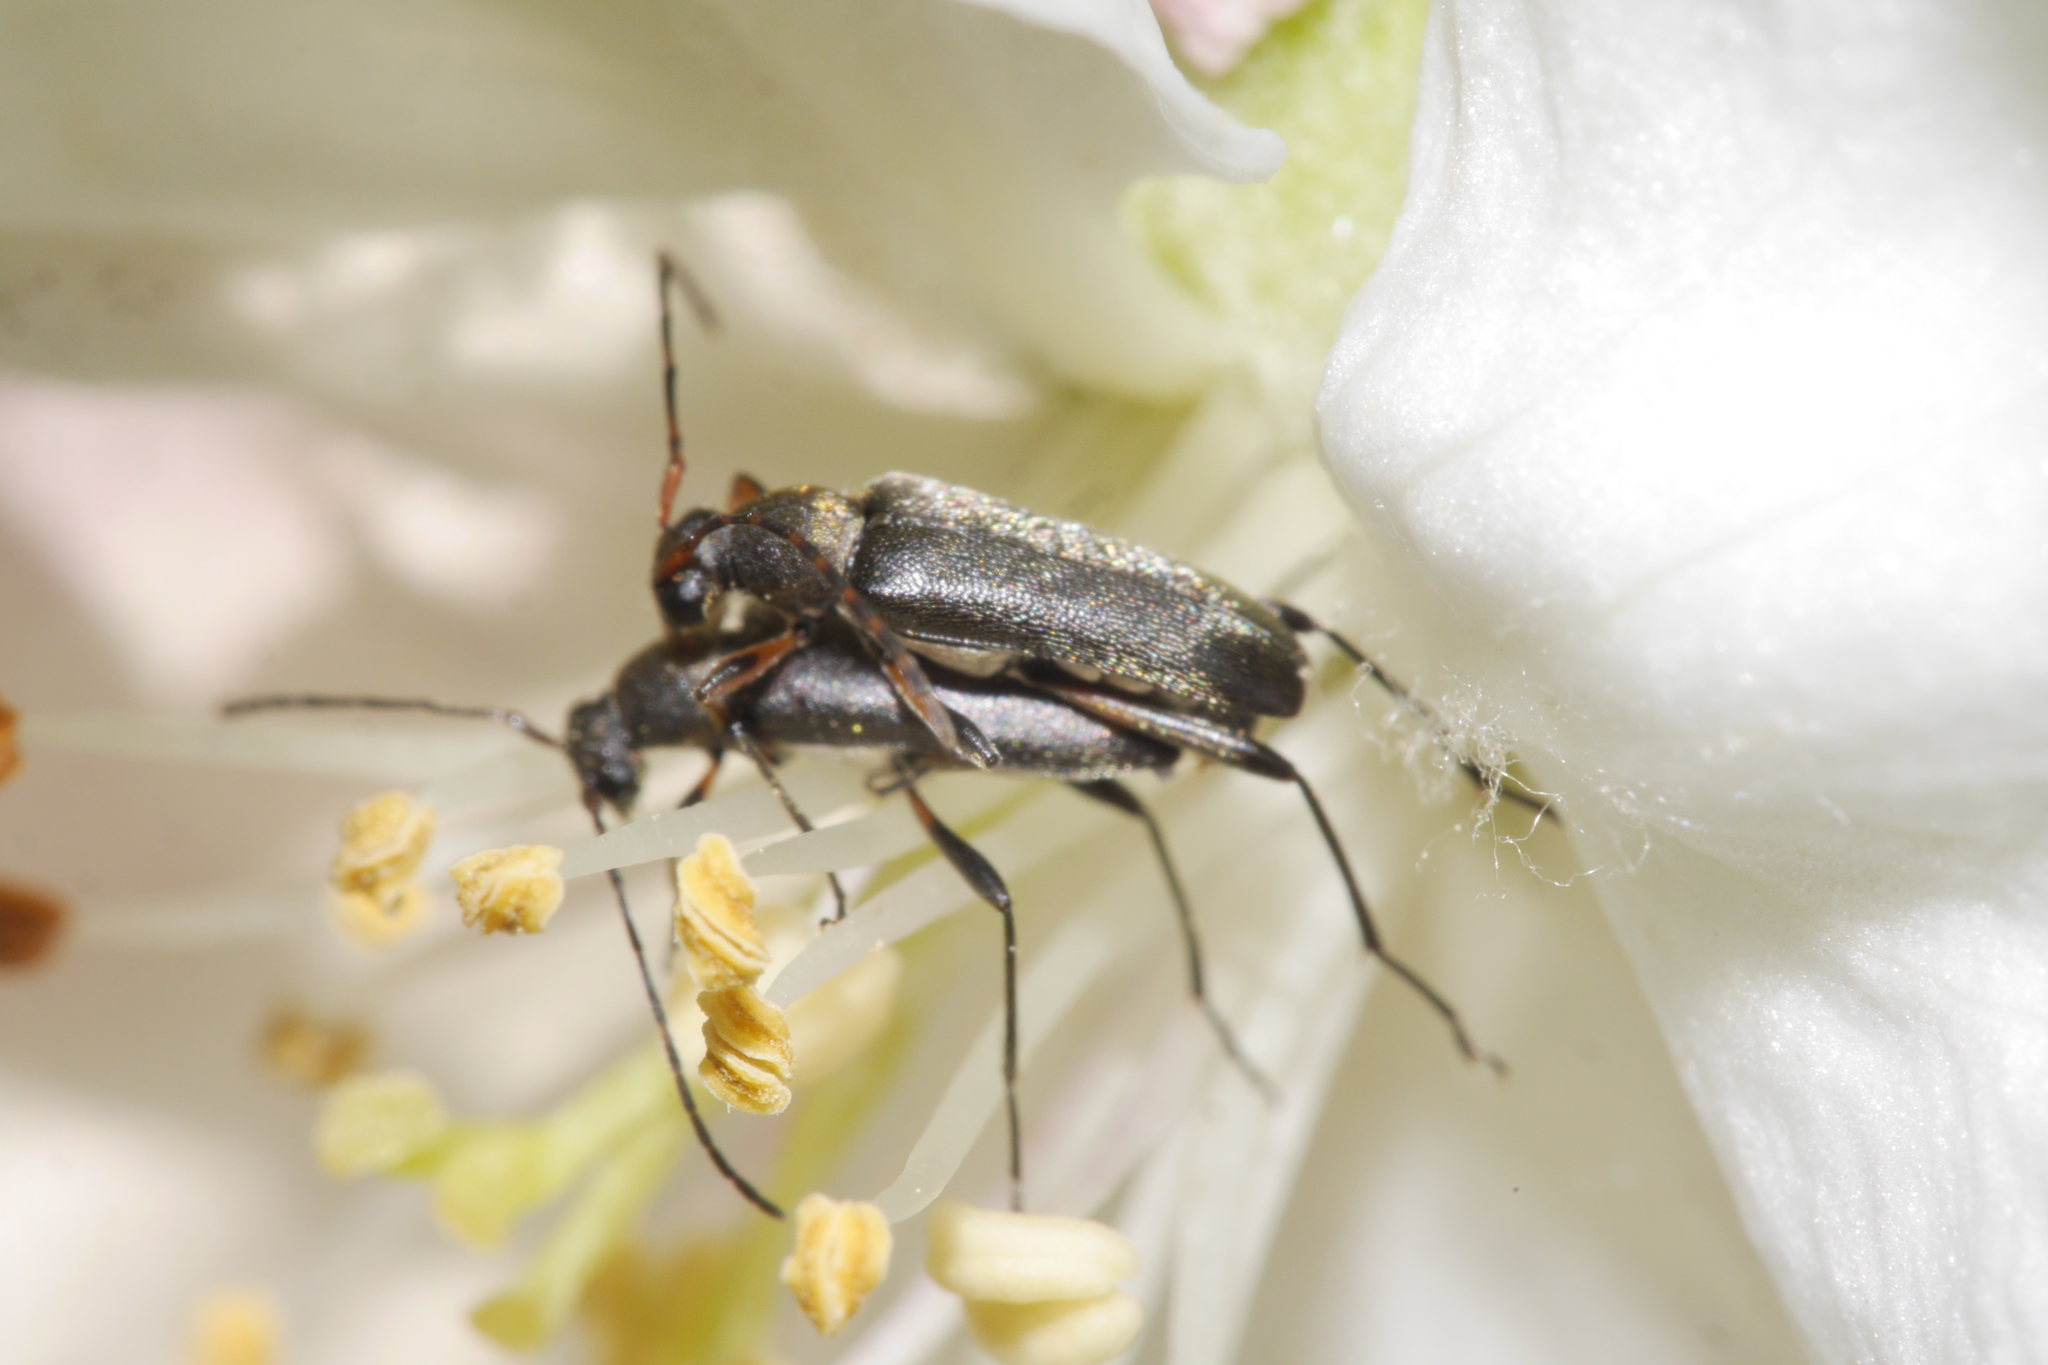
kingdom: Animalia
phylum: Arthropoda
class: Insecta
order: Coleoptera
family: Cerambycidae
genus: Grammoptera
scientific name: Grammoptera ruficornis
